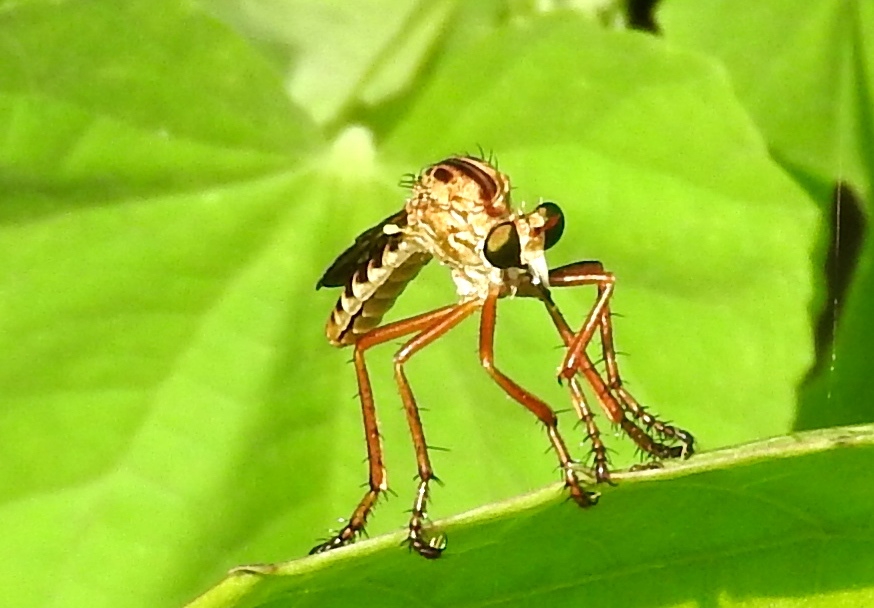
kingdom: Animalia
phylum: Arthropoda
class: Insecta
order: Diptera
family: Asilidae
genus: Diogmites
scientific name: Diogmites
